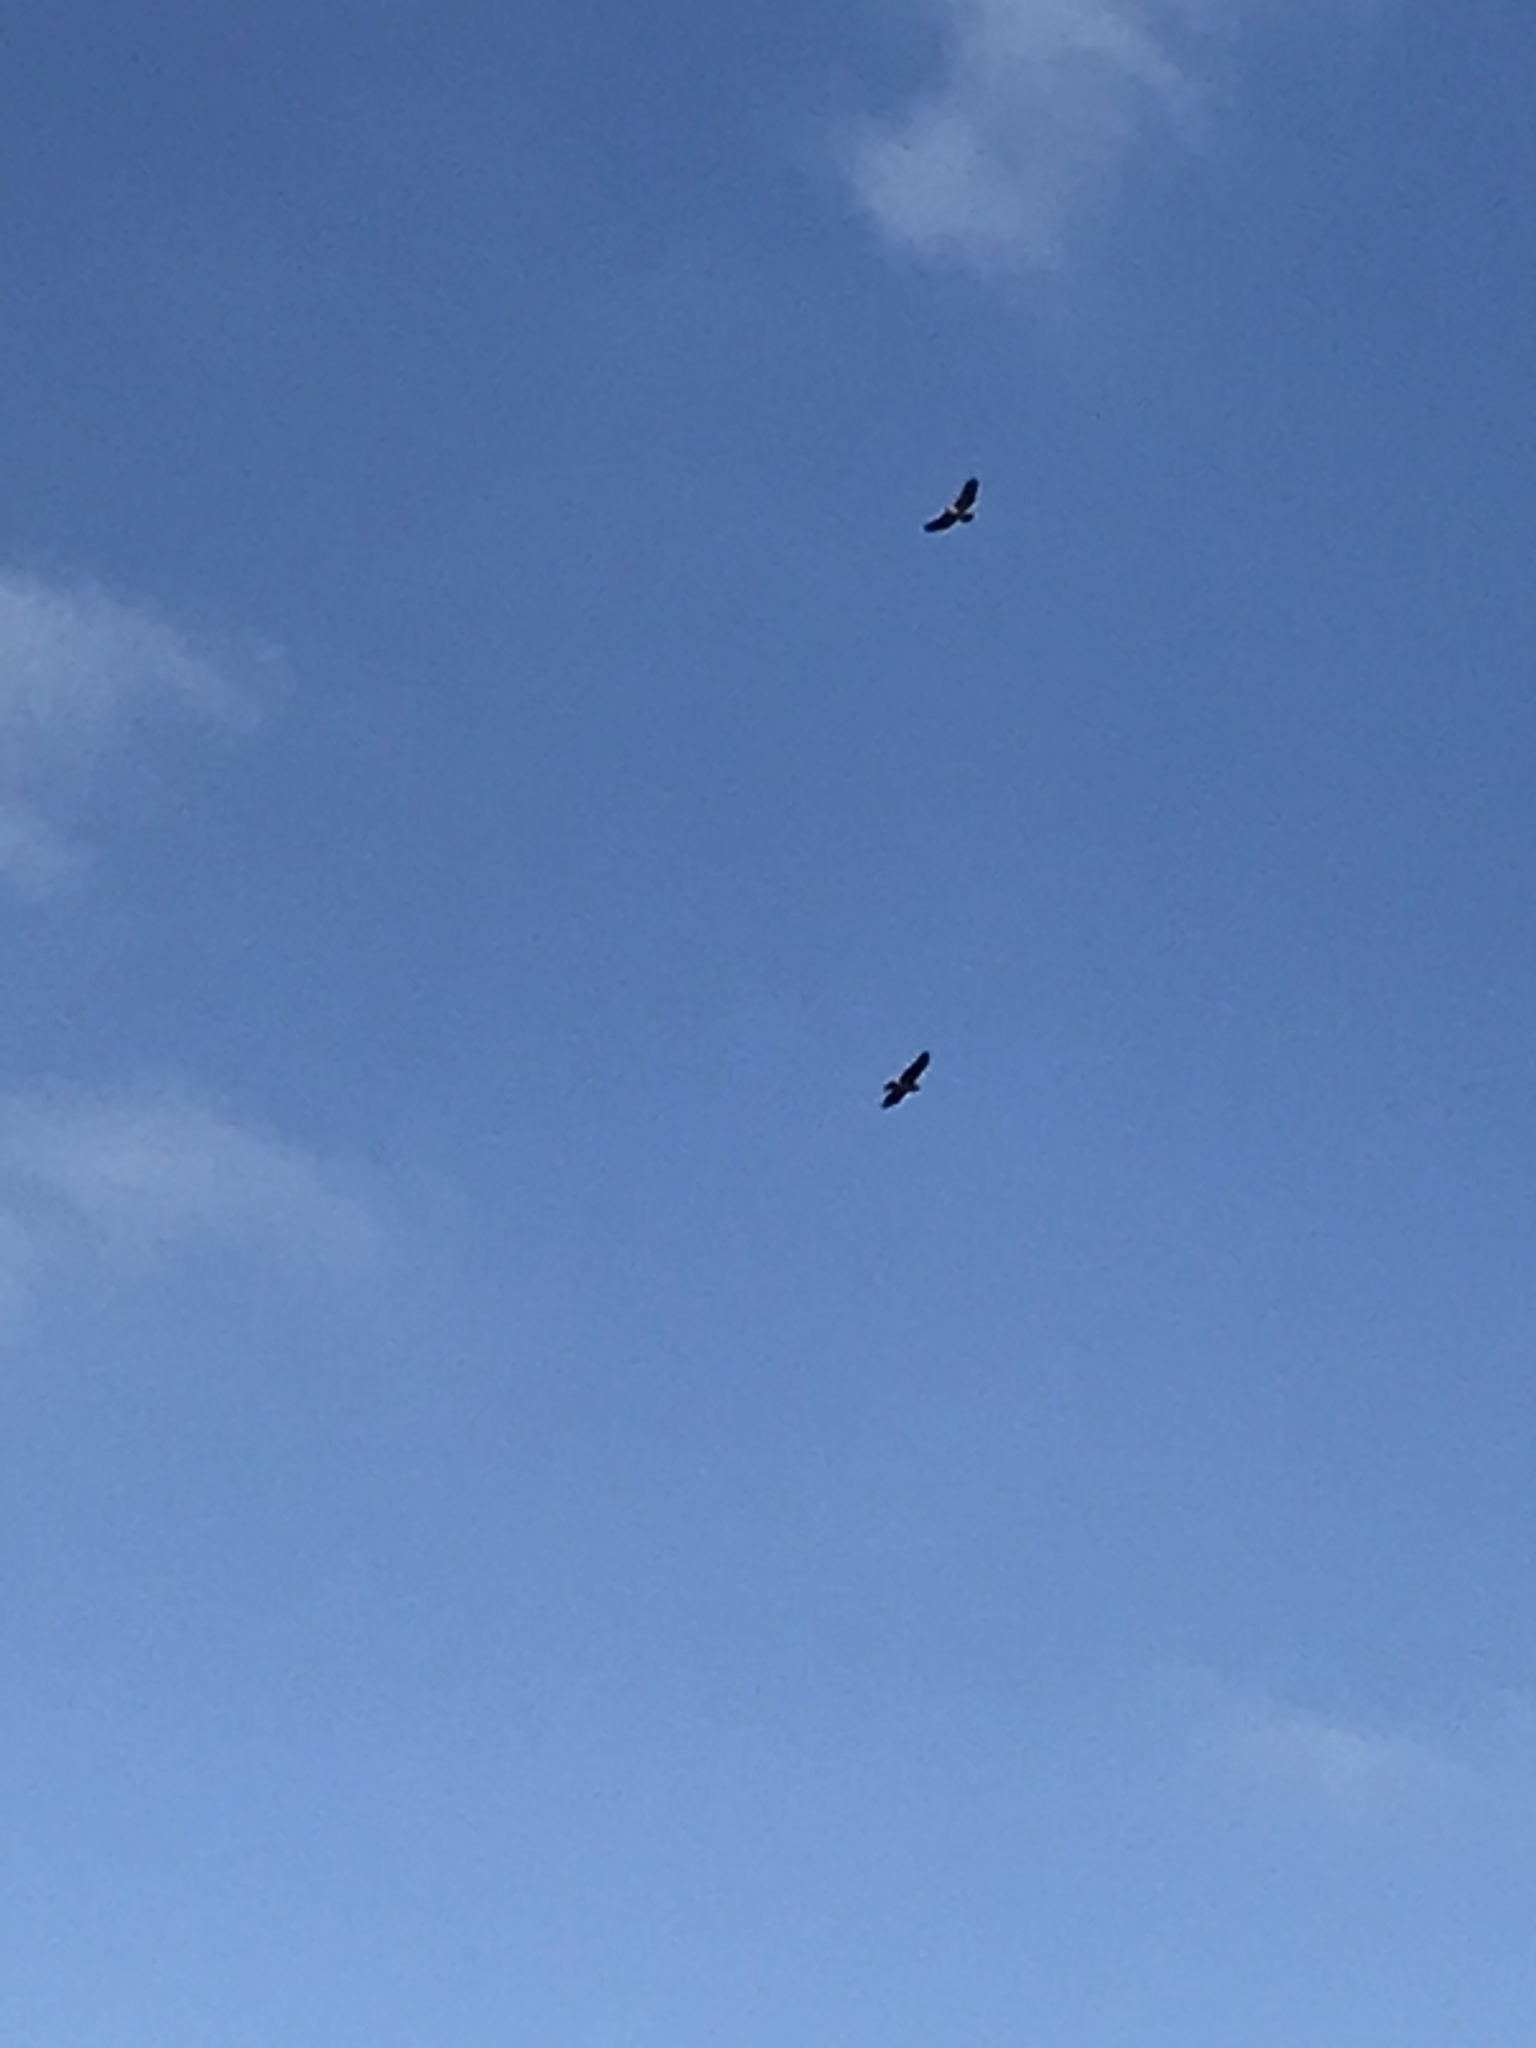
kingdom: Animalia
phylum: Chordata
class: Aves
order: Accipitriformes
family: Accipitridae
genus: Buteo
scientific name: Buteo jamaicensis
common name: Red-tailed hawk
